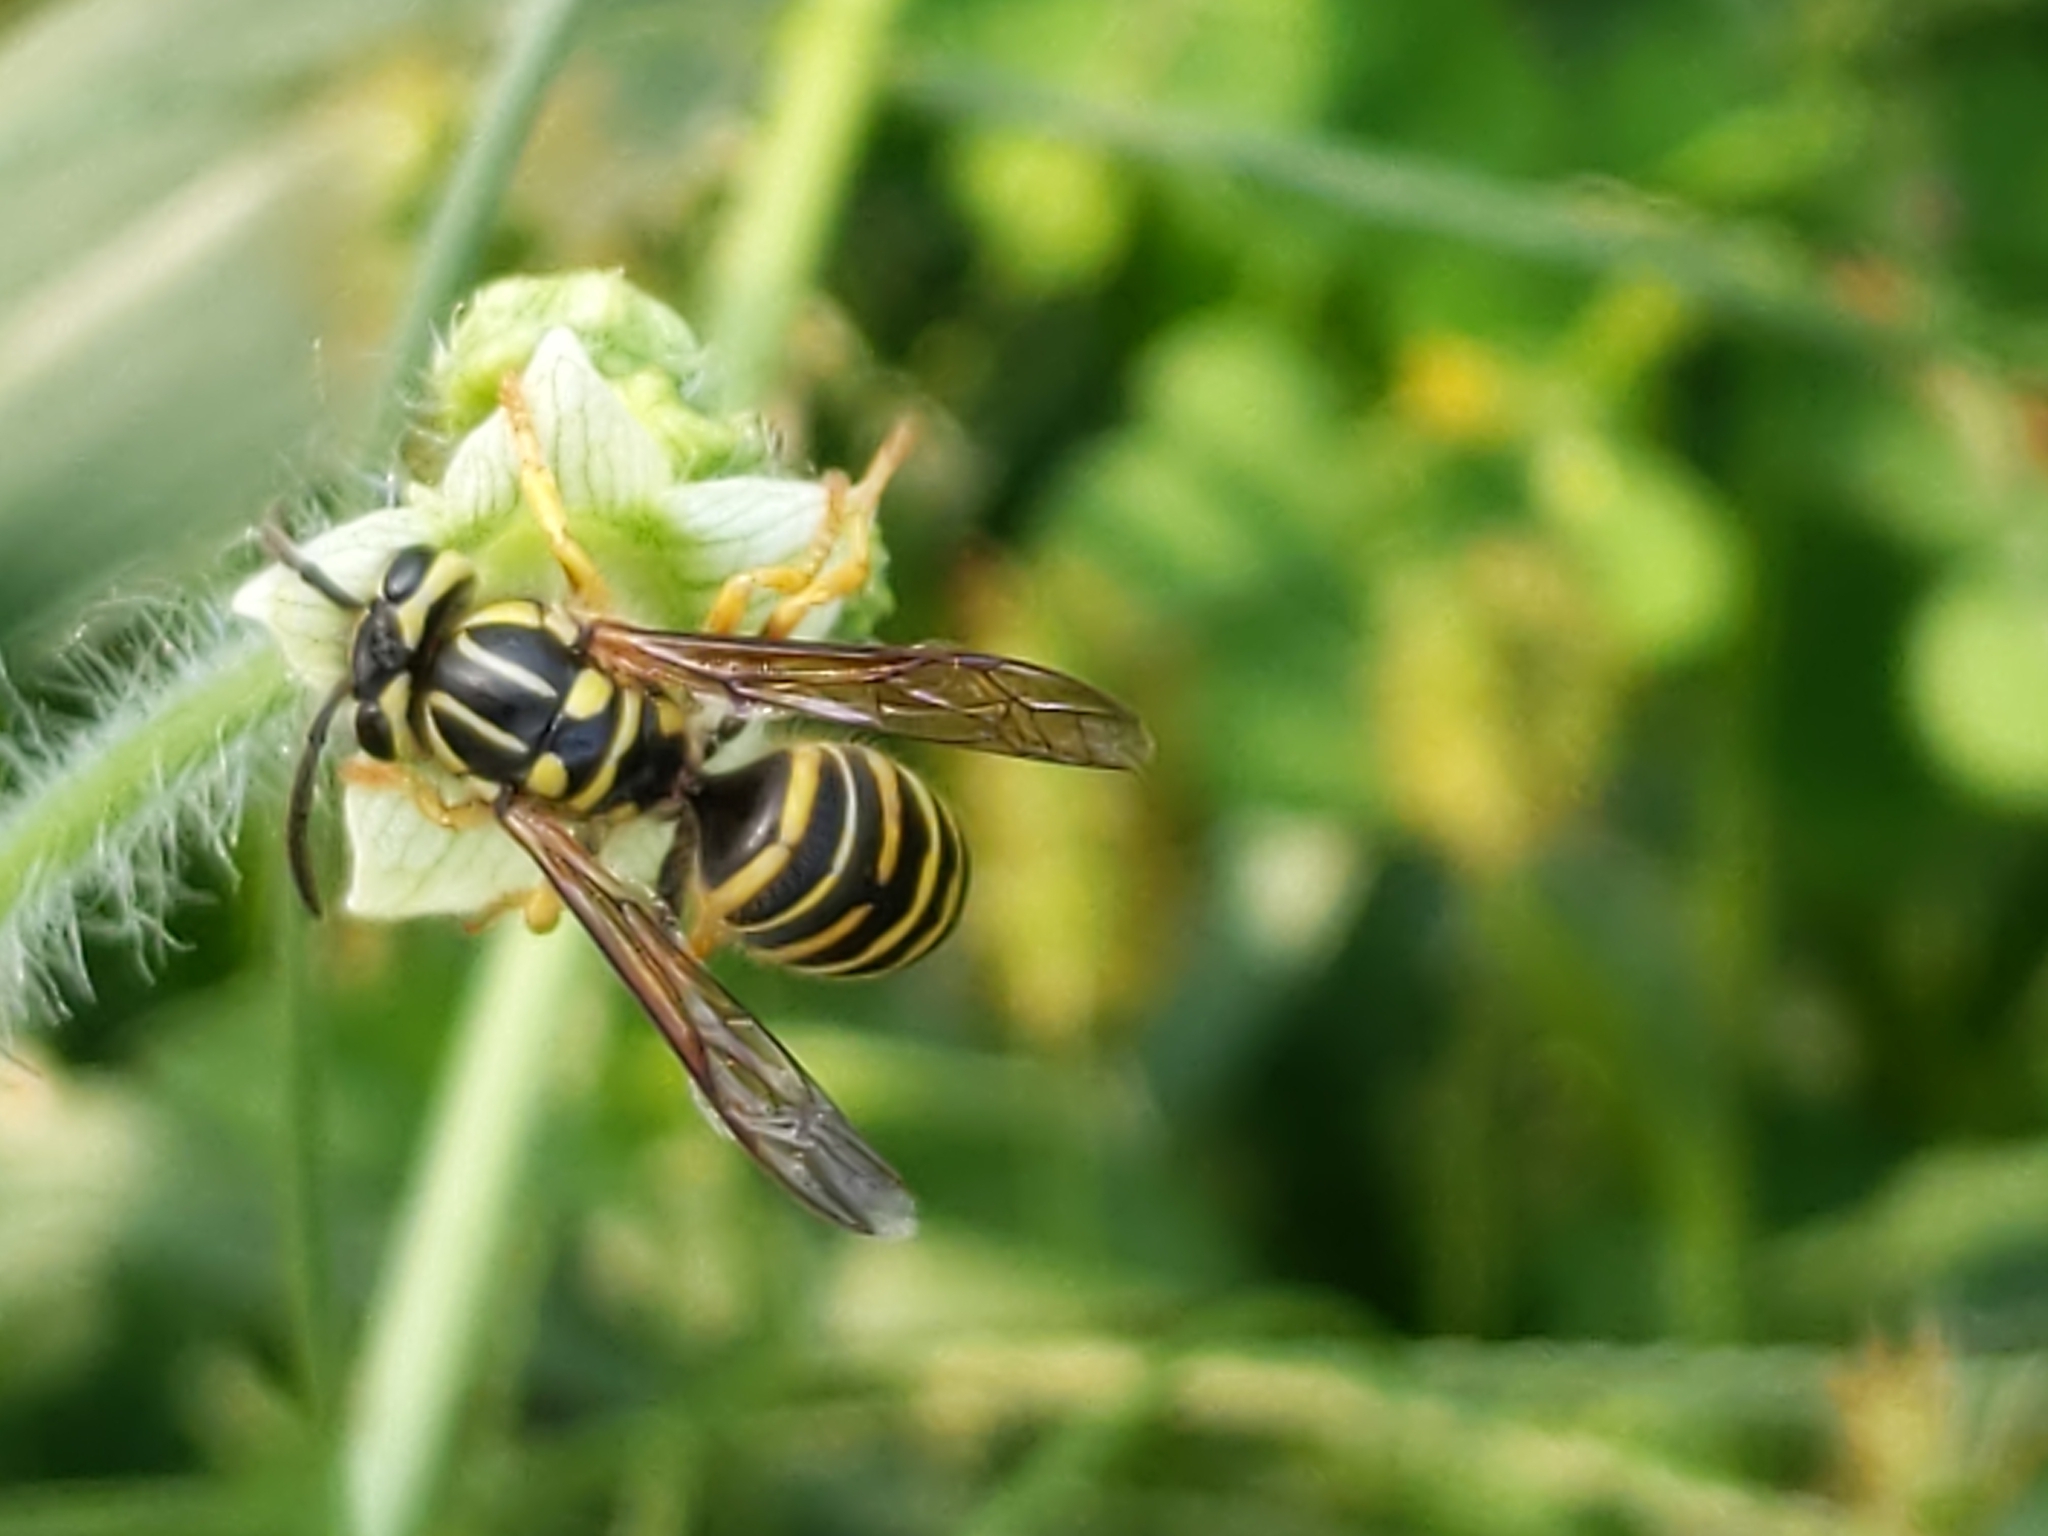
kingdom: Animalia
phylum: Arthropoda
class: Insecta
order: Hymenoptera
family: Vespidae
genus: Vespula
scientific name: Vespula squamosa
